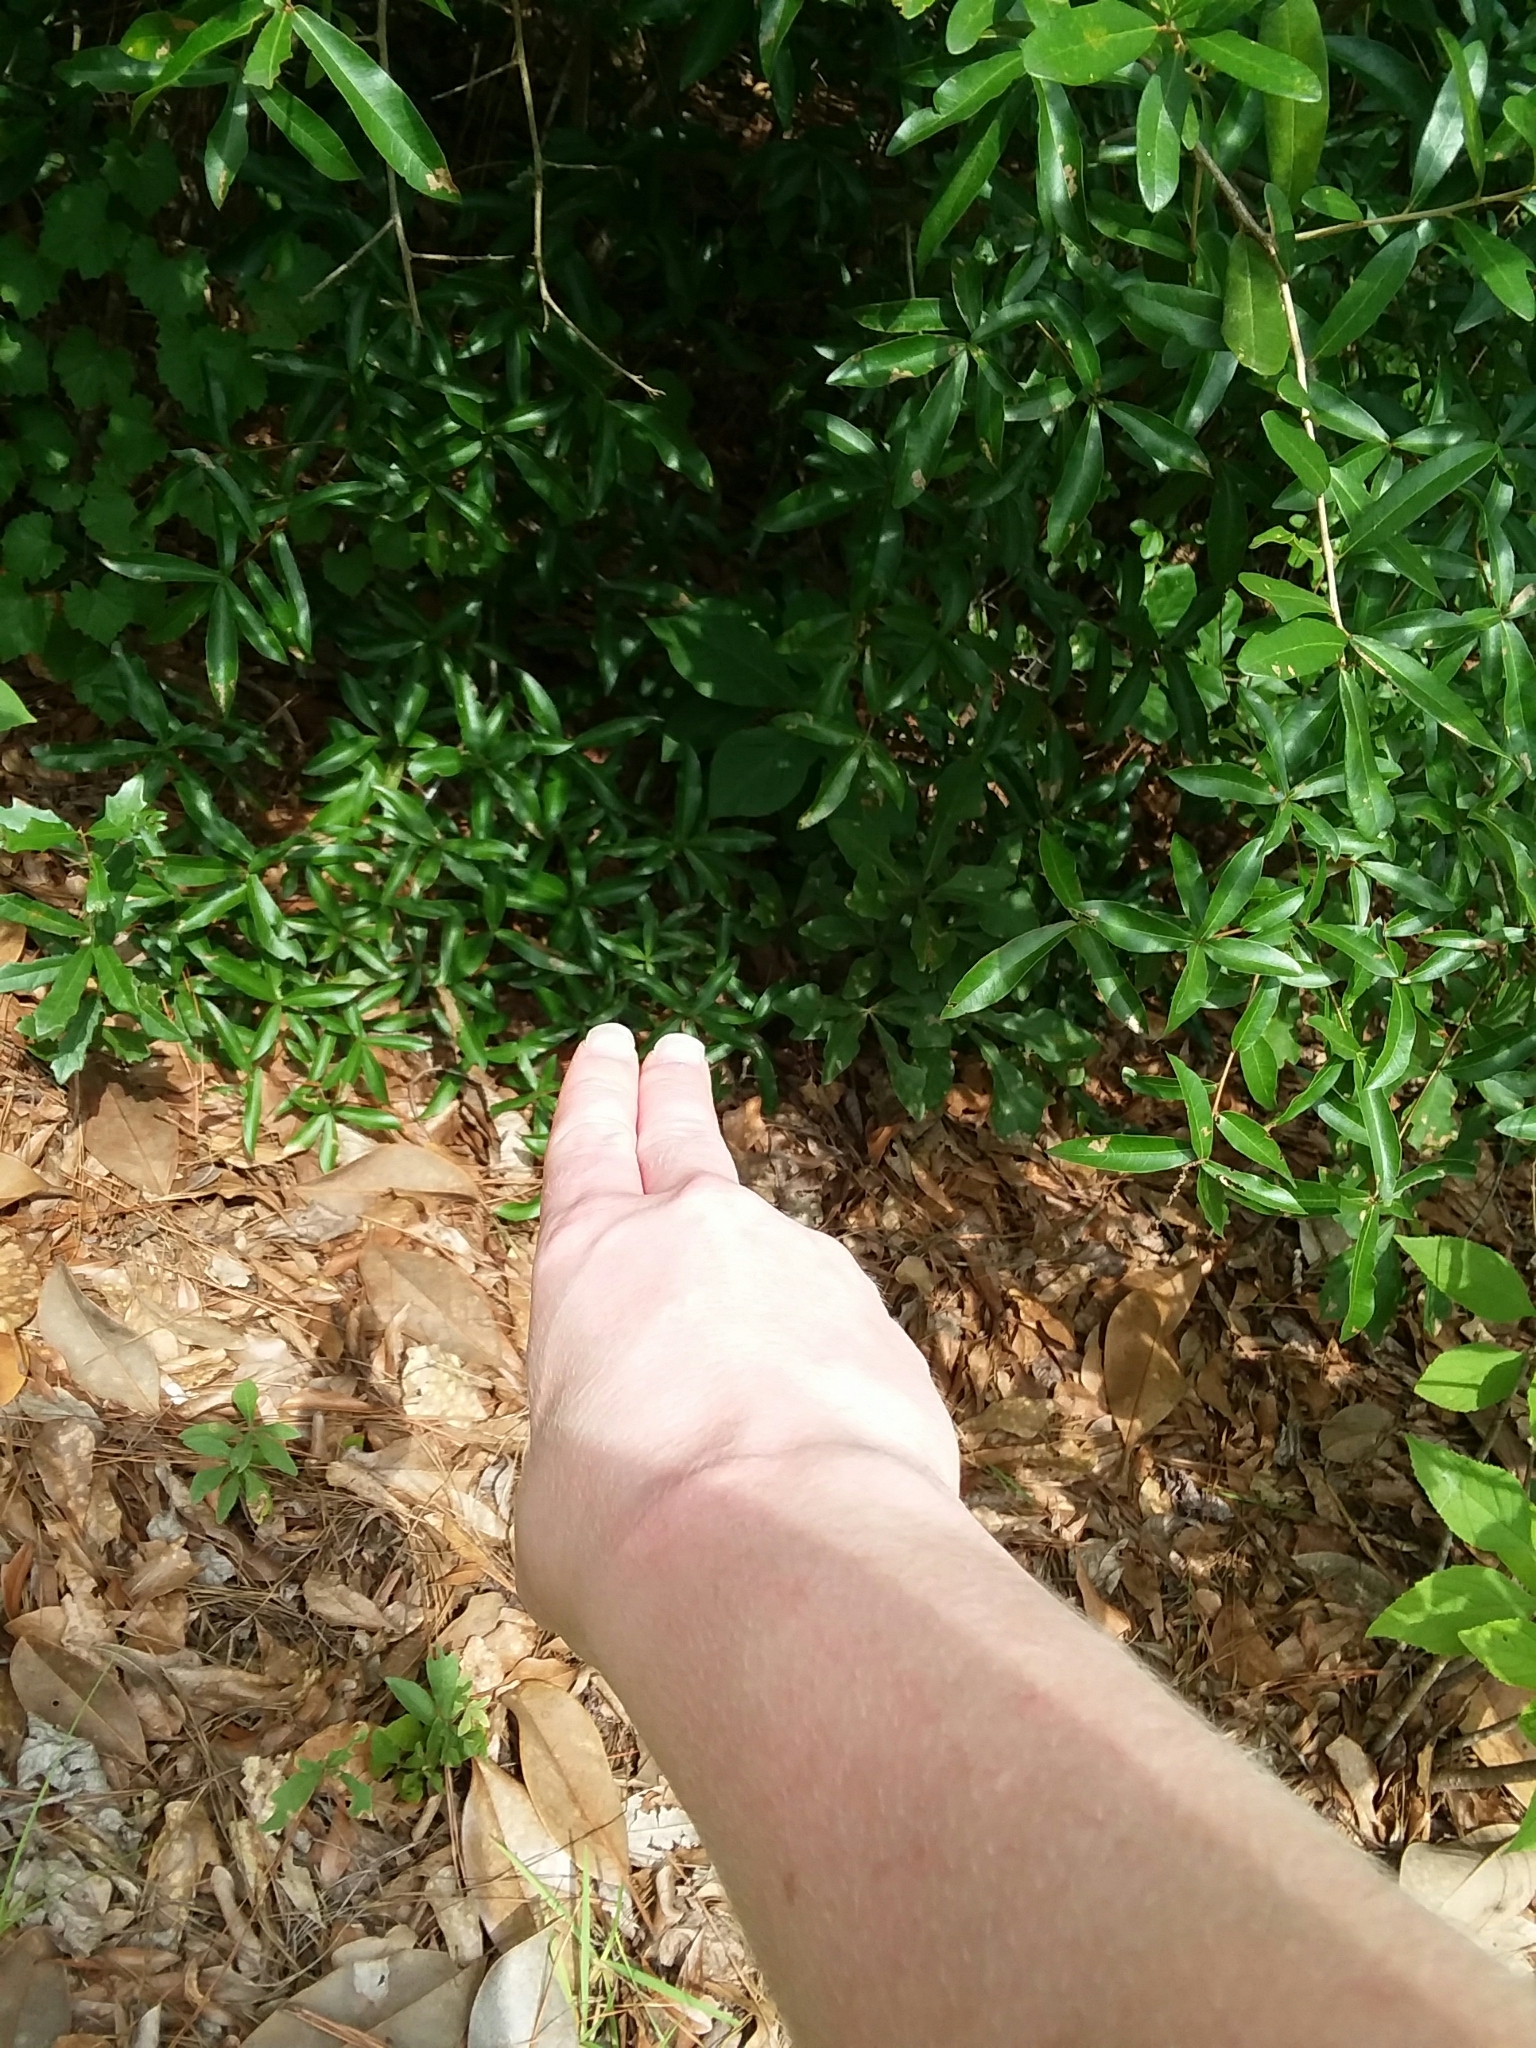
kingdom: Plantae
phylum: Tracheophyta
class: Magnoliopsida
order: Magnoliales
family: Annonaceae
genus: Asimina
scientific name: Asimina parviflora
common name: Dwarf pawpaw
